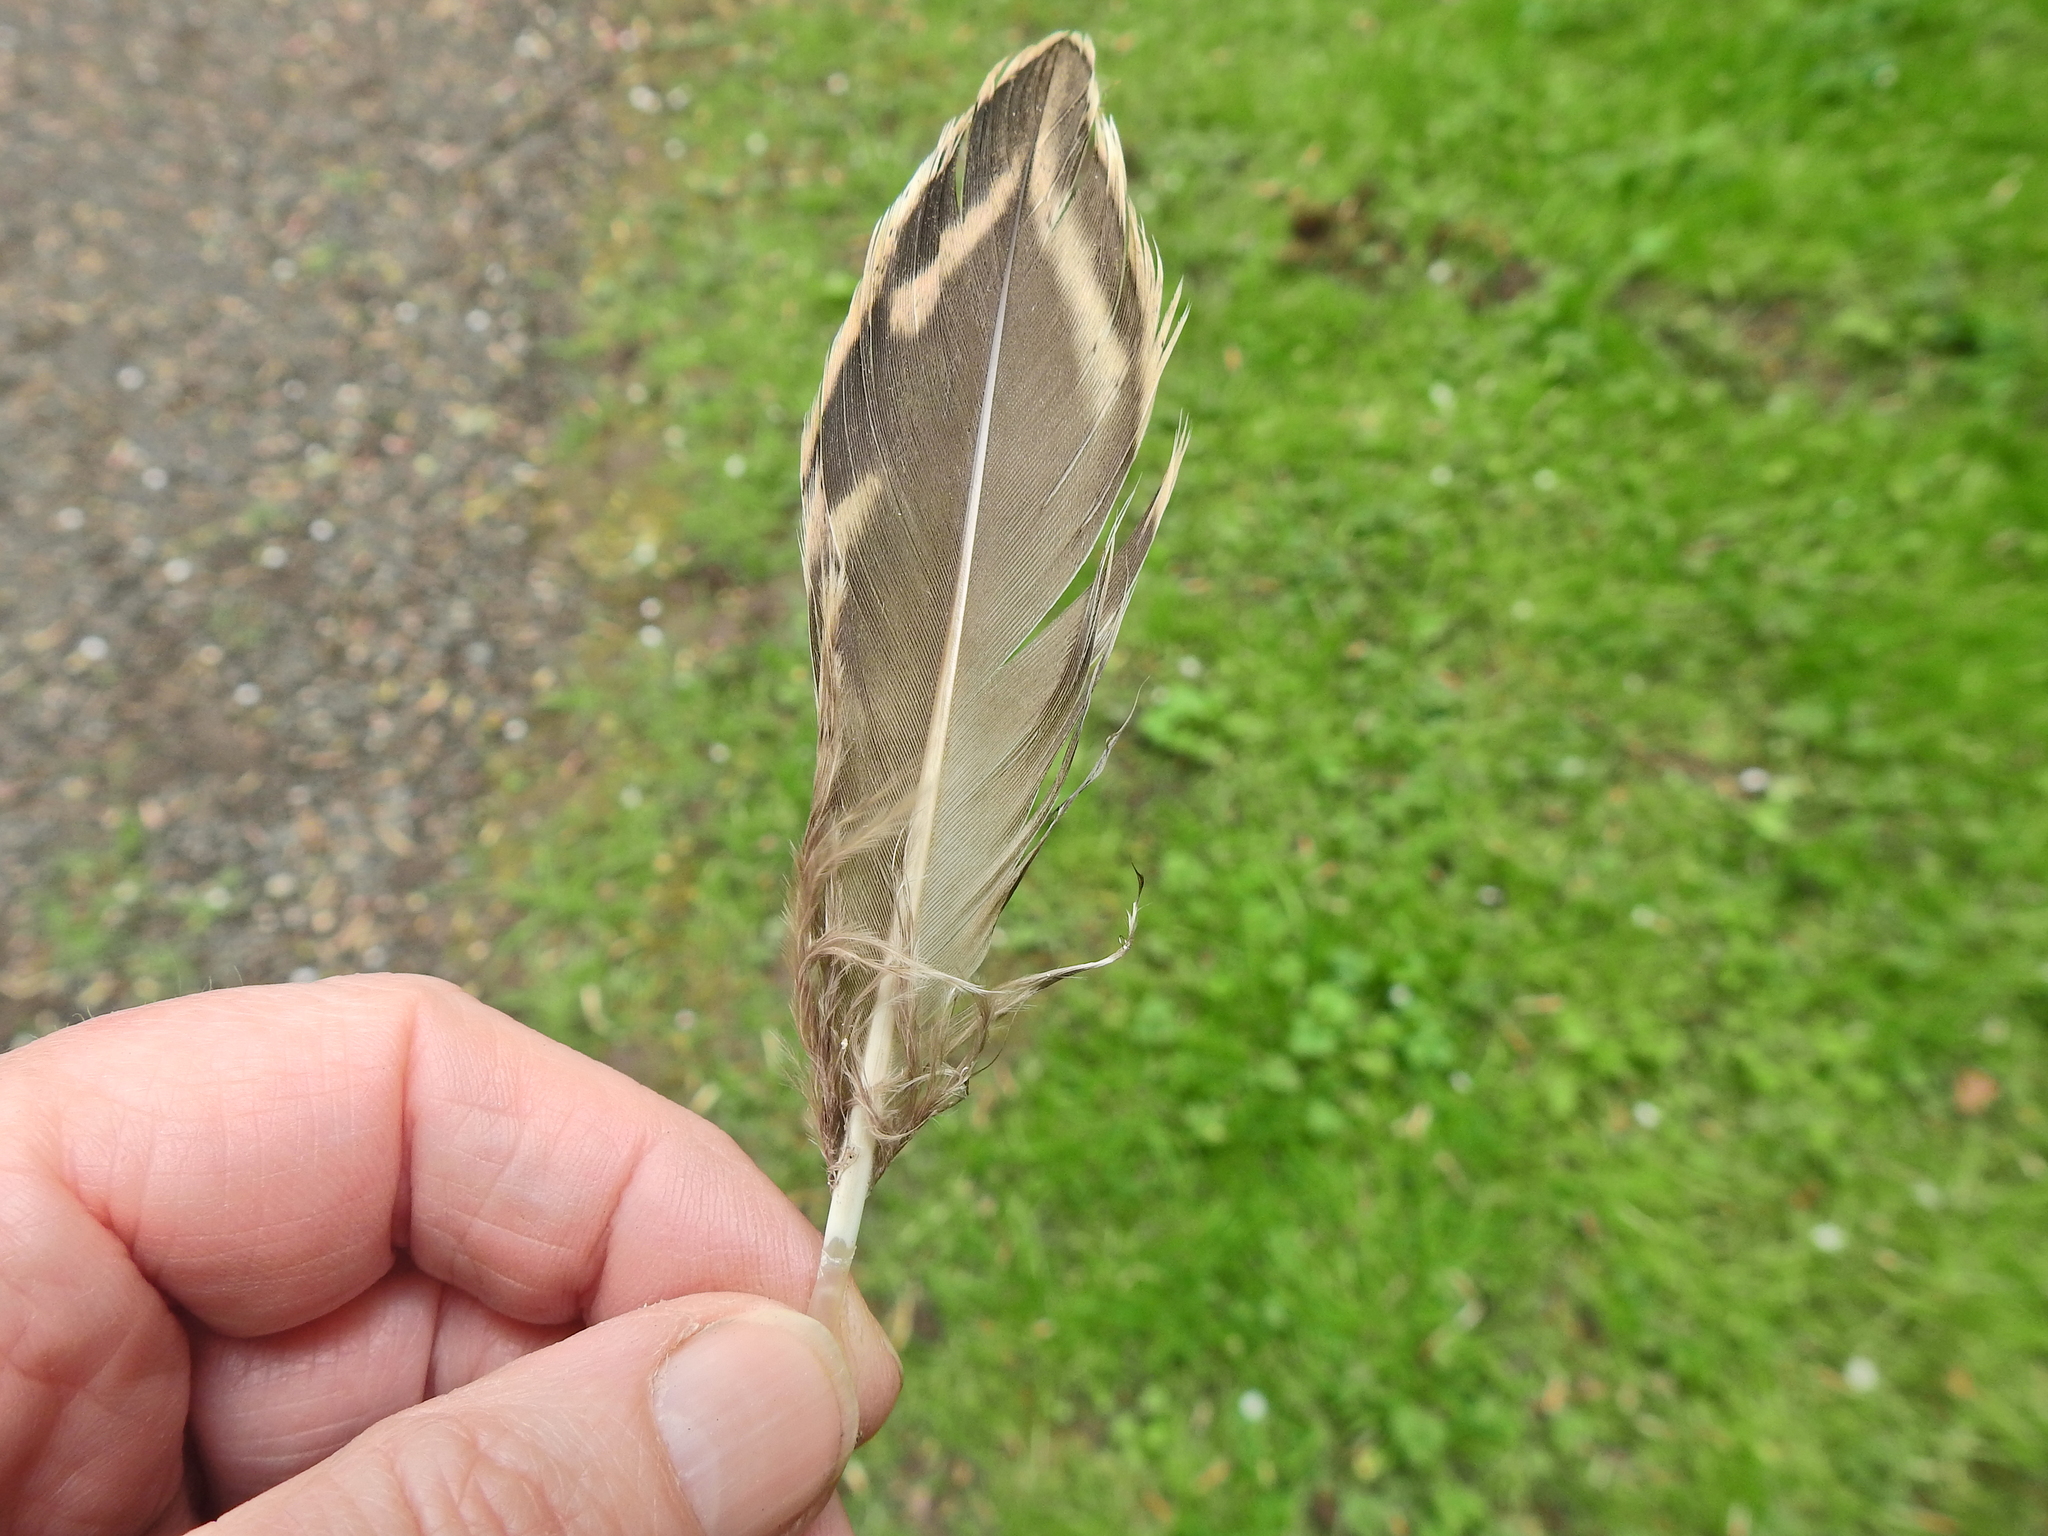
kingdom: Animalia
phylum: Chordata
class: Aves
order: Anseriformes
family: Anatidae
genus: Anas
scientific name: Anas platyrhynchos
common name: Mallard
